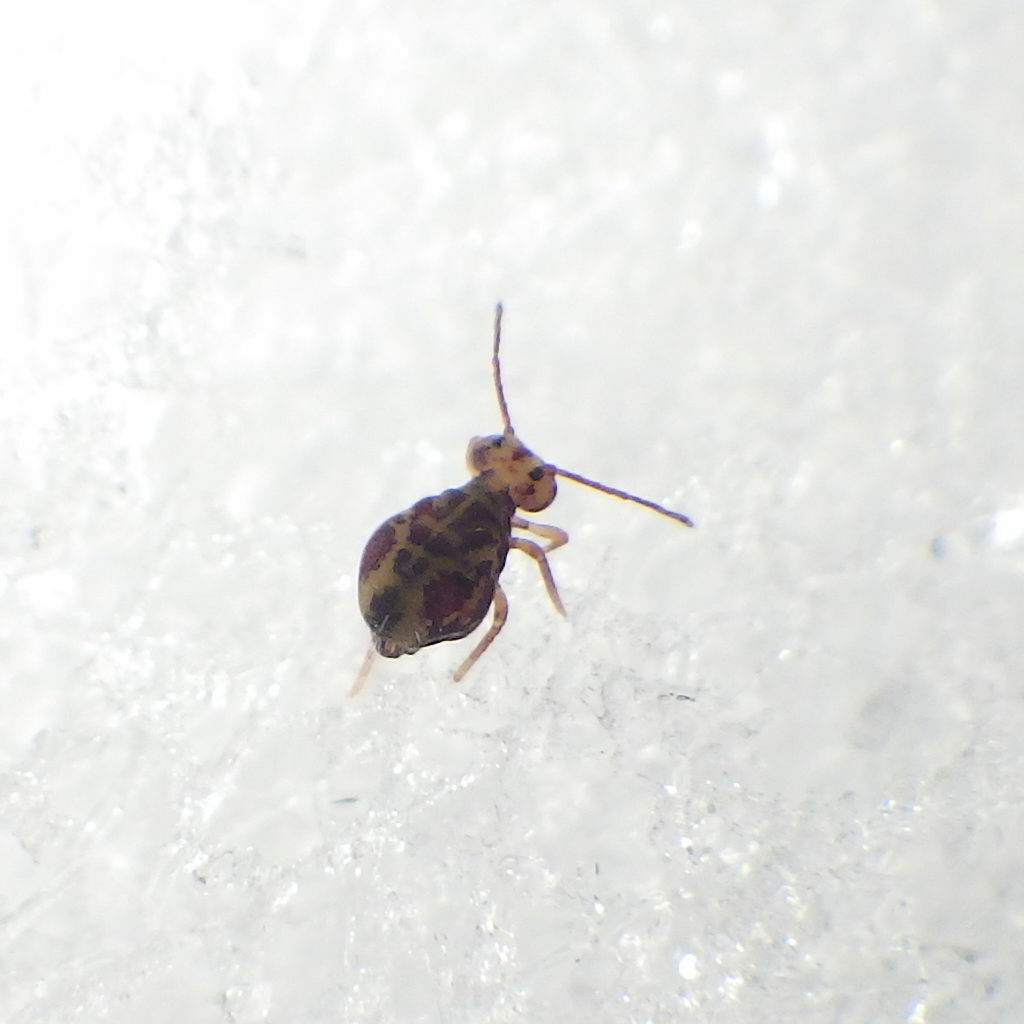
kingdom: Animalia
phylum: Arthropoda
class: Collembola
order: Symphypleona
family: Dicyrtomidae
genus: Dicyrtomina
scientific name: Dicyrtomina minuta
